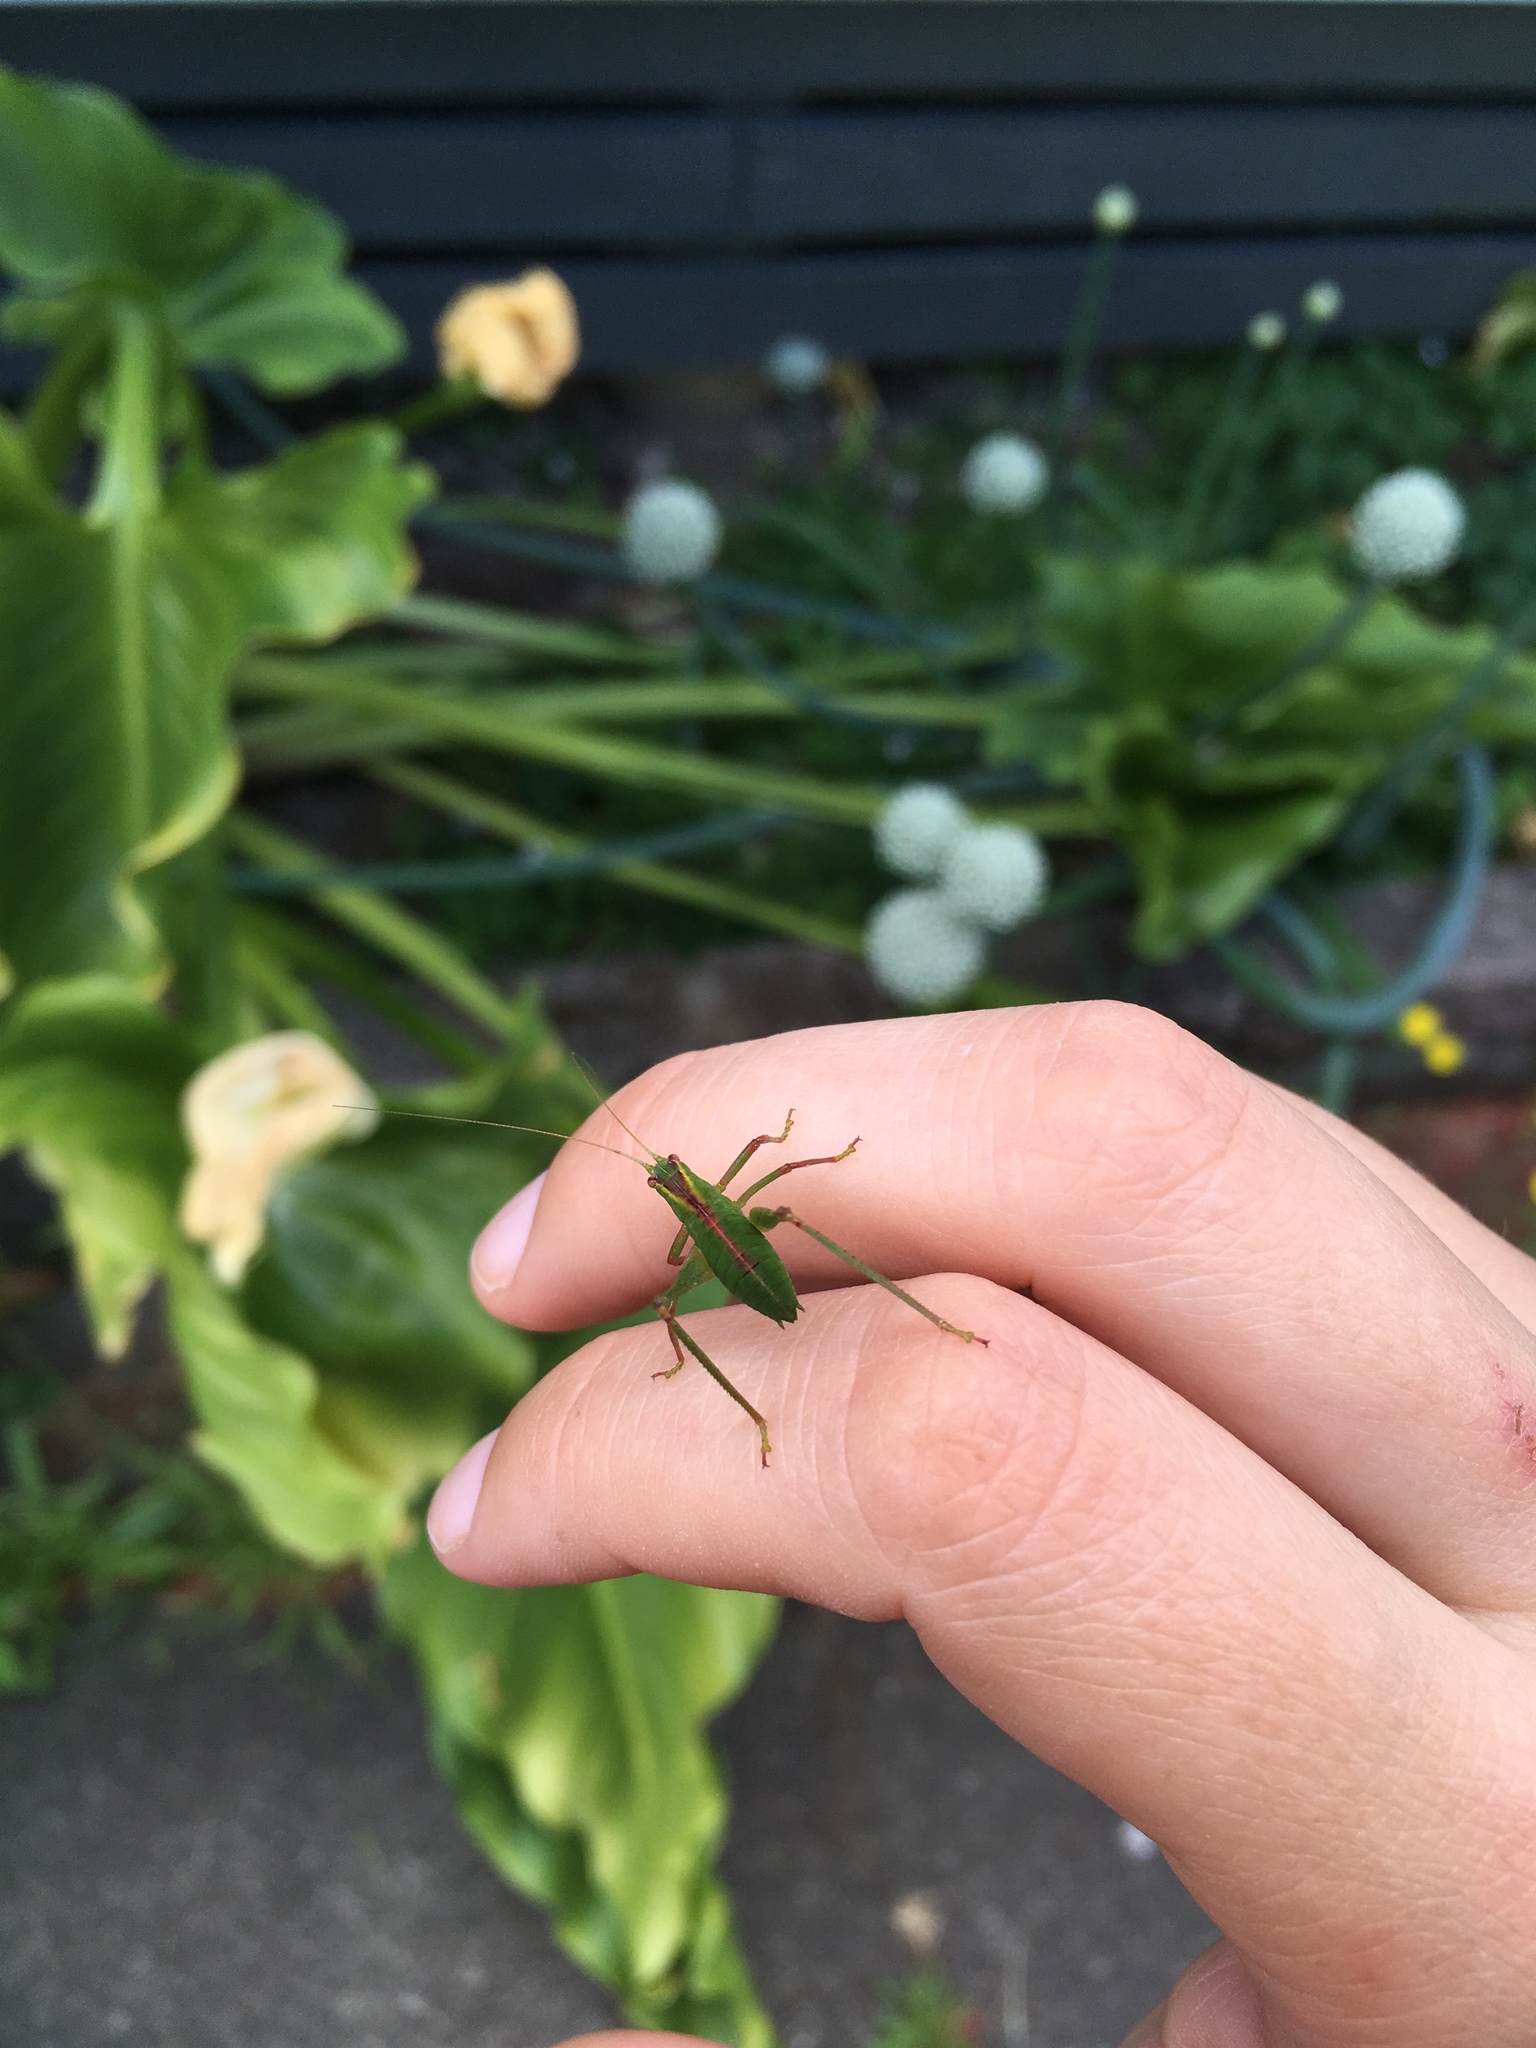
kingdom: Animalia
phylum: Arthropoda
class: Insecta
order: Orthoptera
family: Tettigoniidae
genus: Caedicia
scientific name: Caedicia simplex
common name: Common garden katydid
